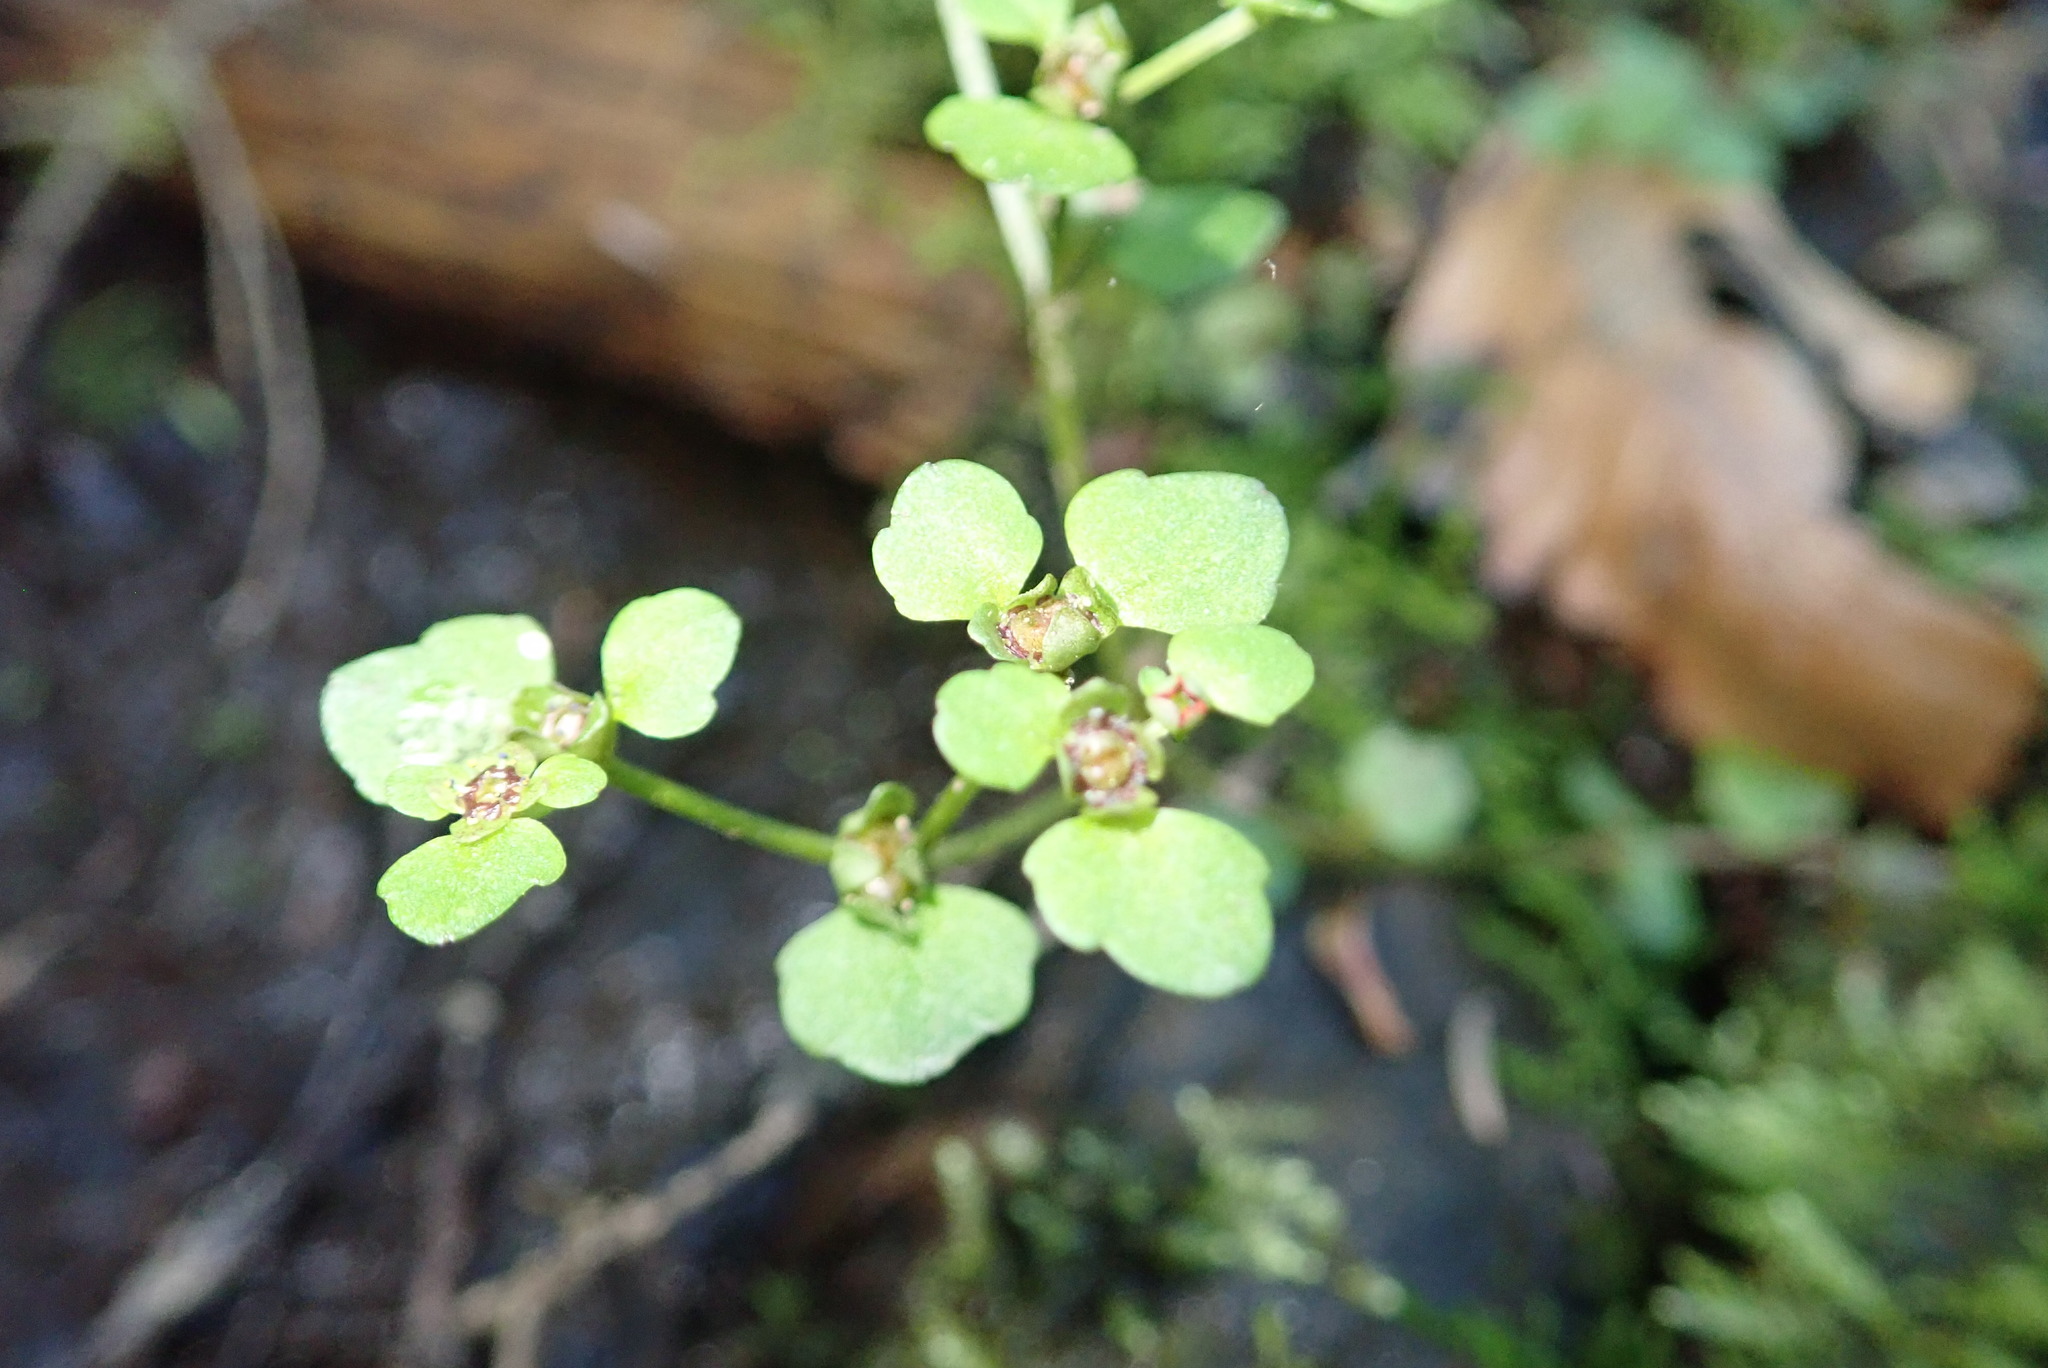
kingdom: Plantae
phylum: Tracheophyta
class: Magnoliopsida
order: Saxifragales
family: Saxifragaceae
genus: Chrysosplenium
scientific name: Chrysosplenium americanum
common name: American golden-saxifrage
